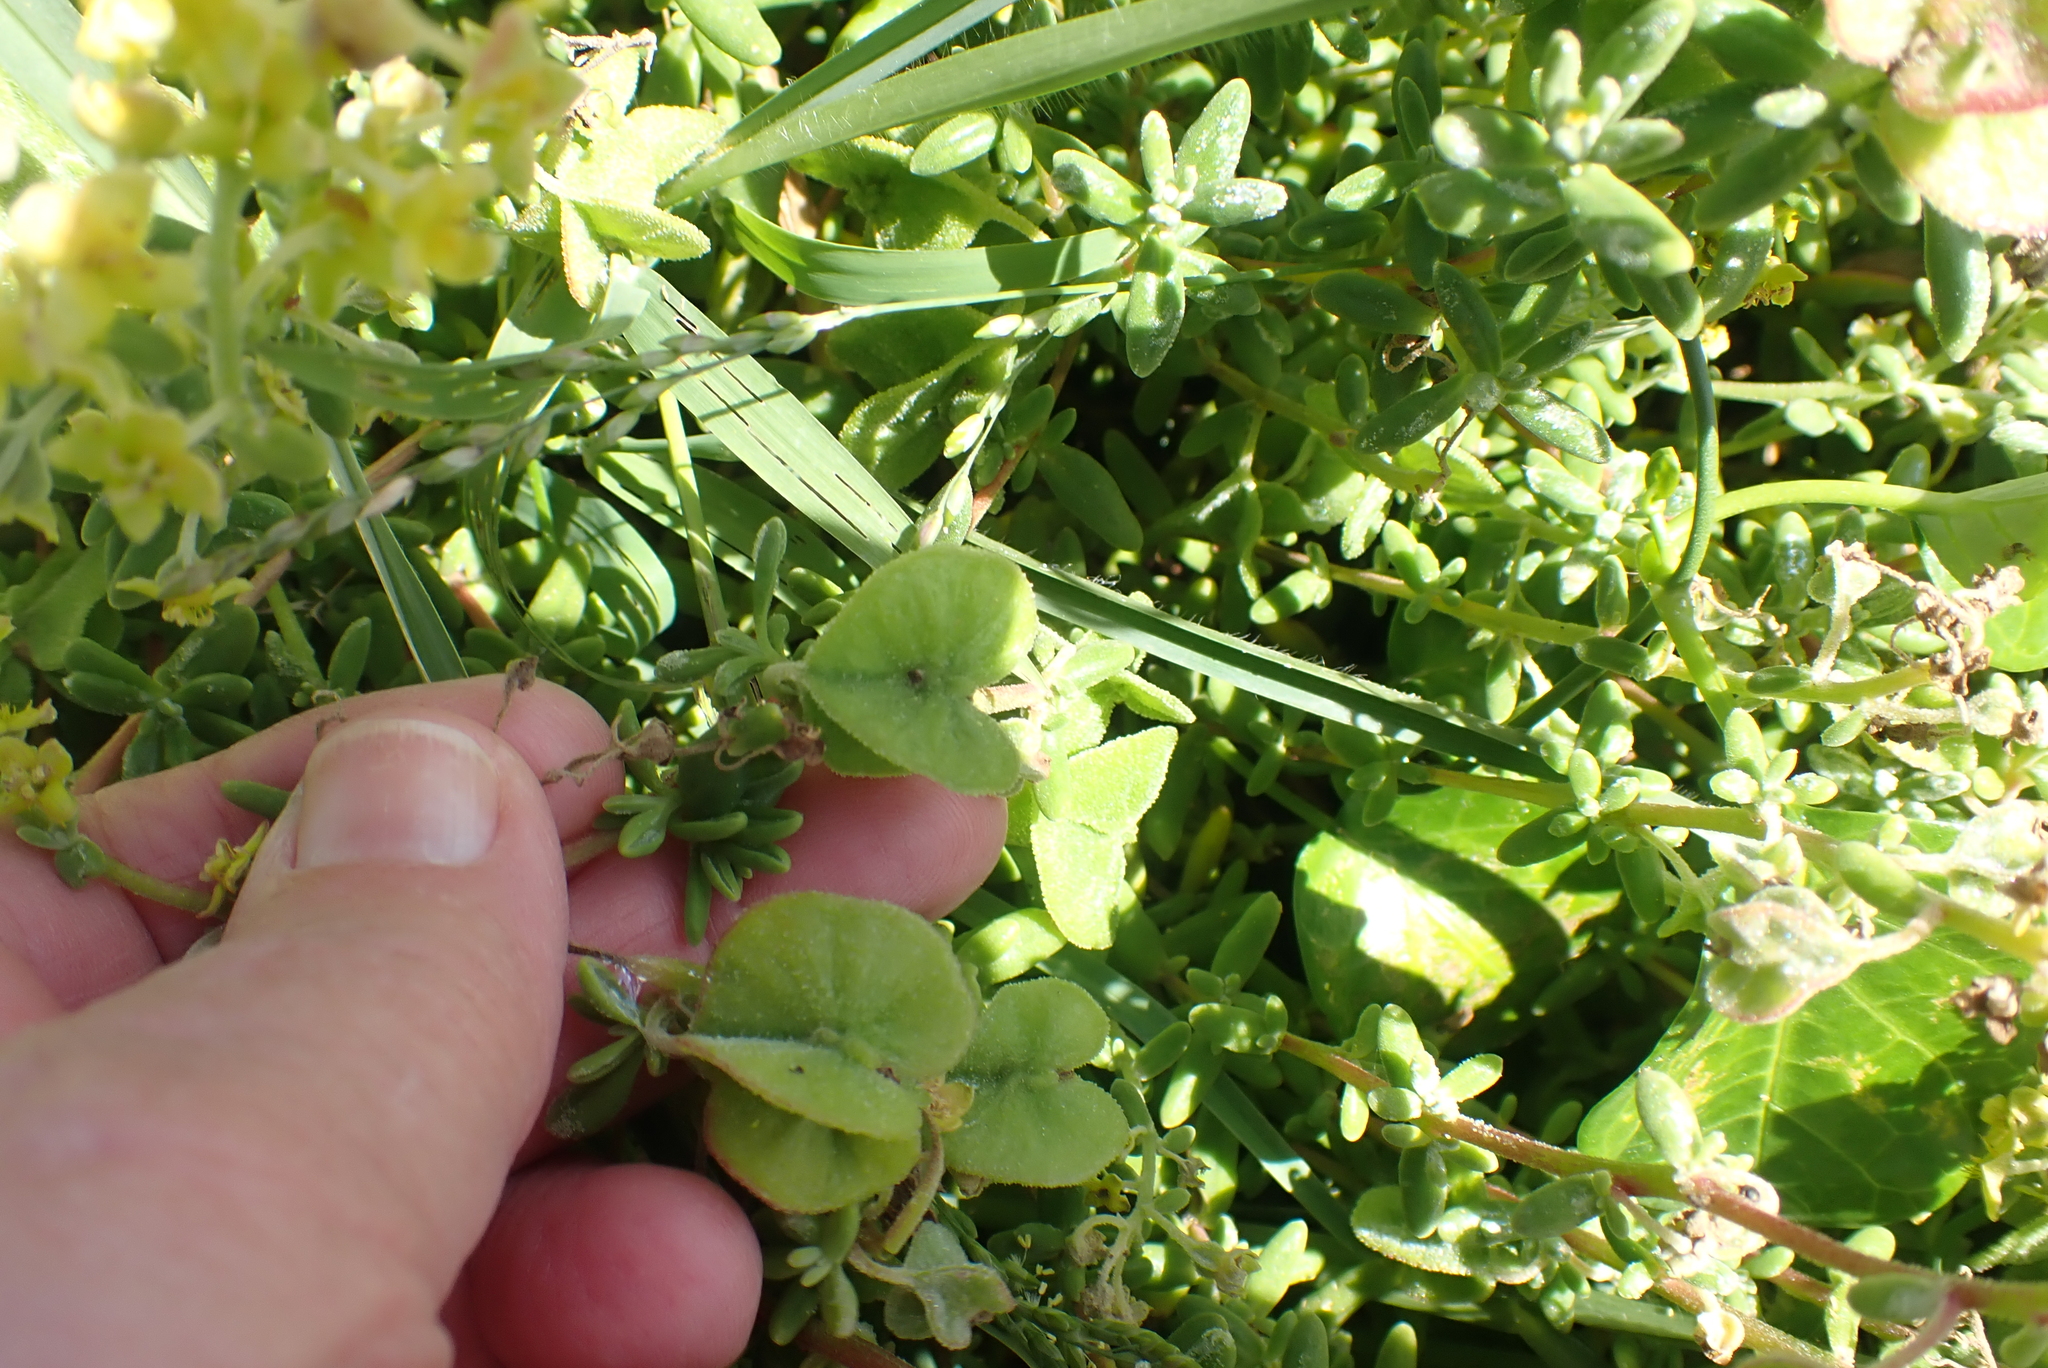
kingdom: Plantae
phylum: Tracheophyta
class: Magnoliopsida
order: Caryophyllales
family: Aizoaceae
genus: Tetragonia
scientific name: Tetragonia fruticosa
